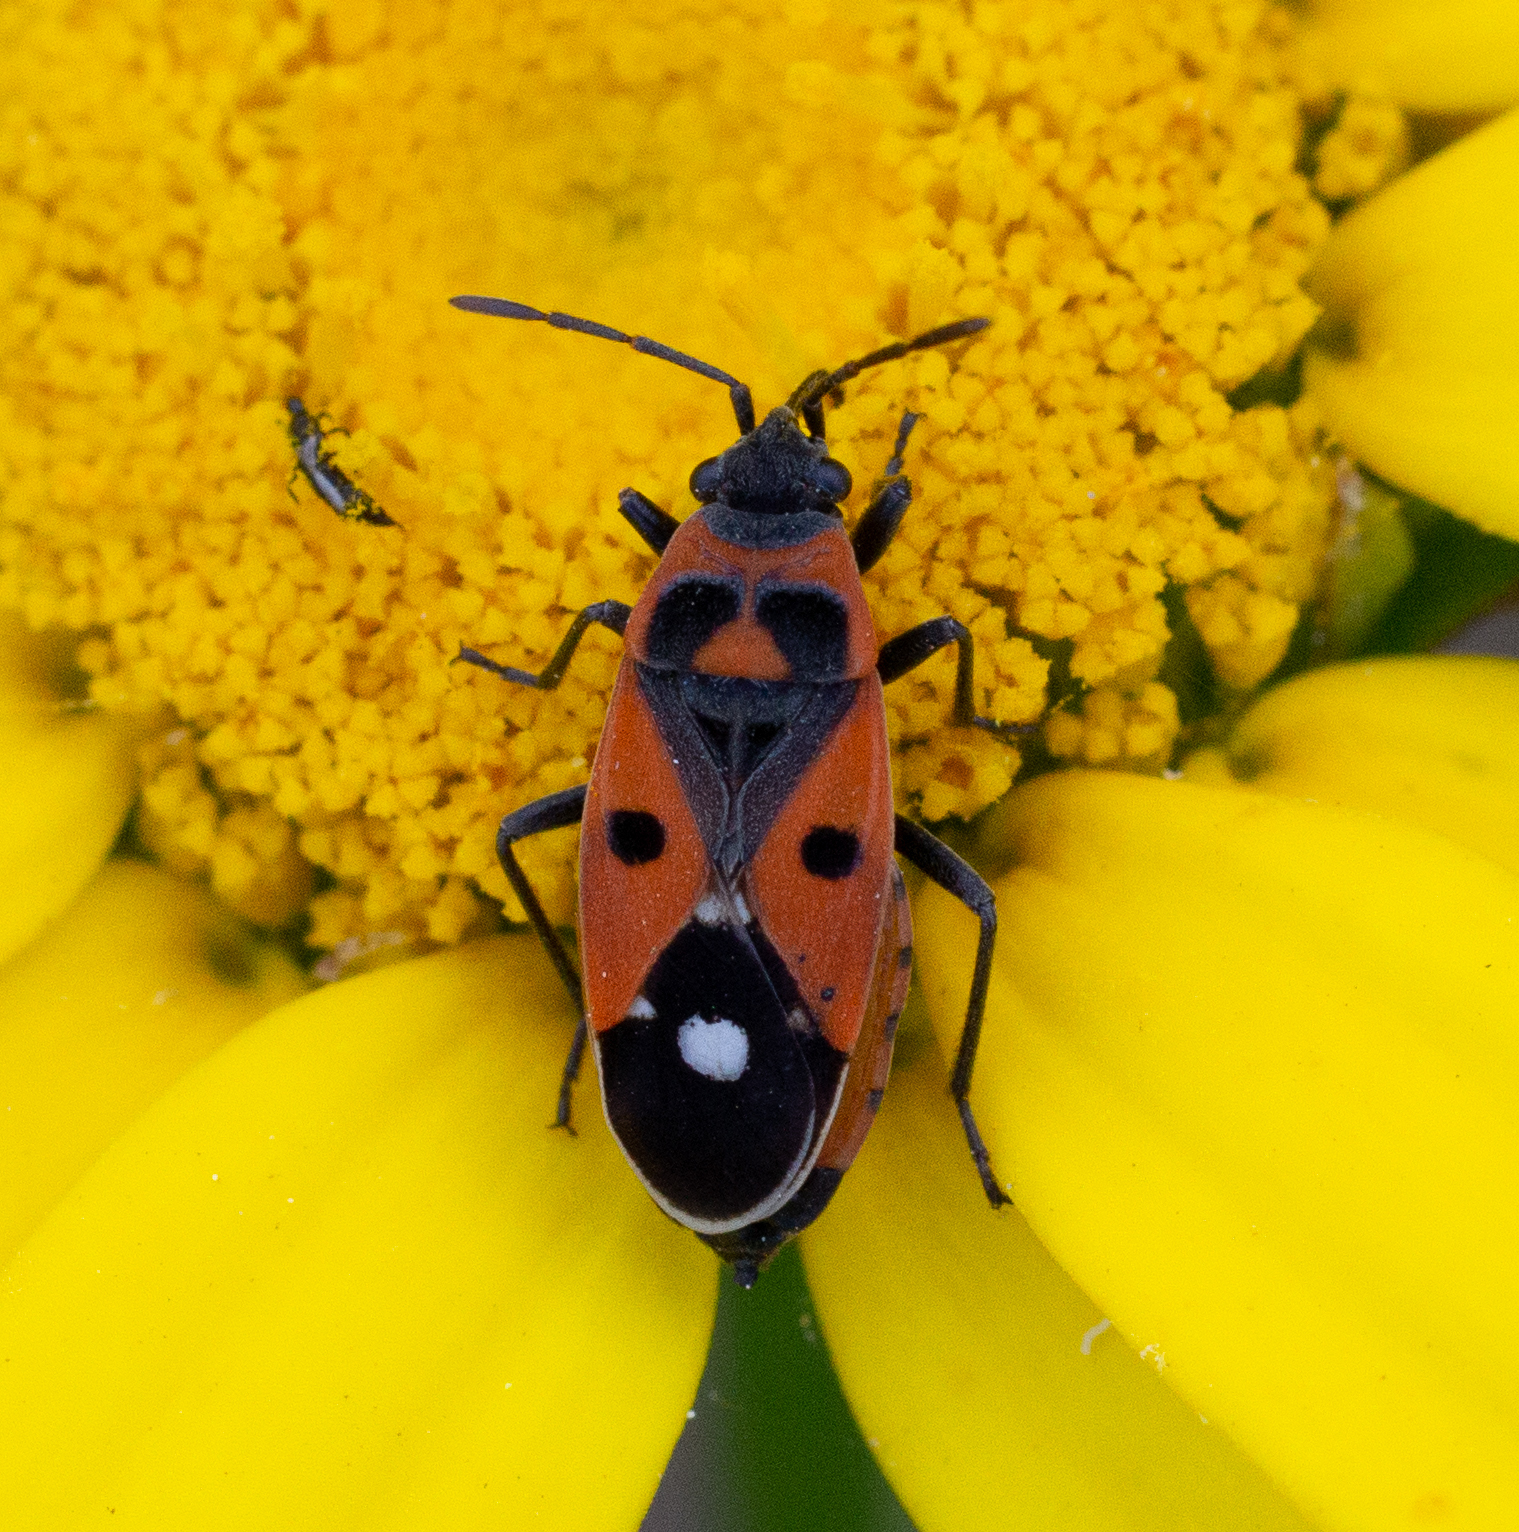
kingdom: Animalia
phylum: Arthropoda
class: Insecta
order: Hemiptera
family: Lygaeidae
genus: Melanocoryphus
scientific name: Melanocoryphus albomaculatus
